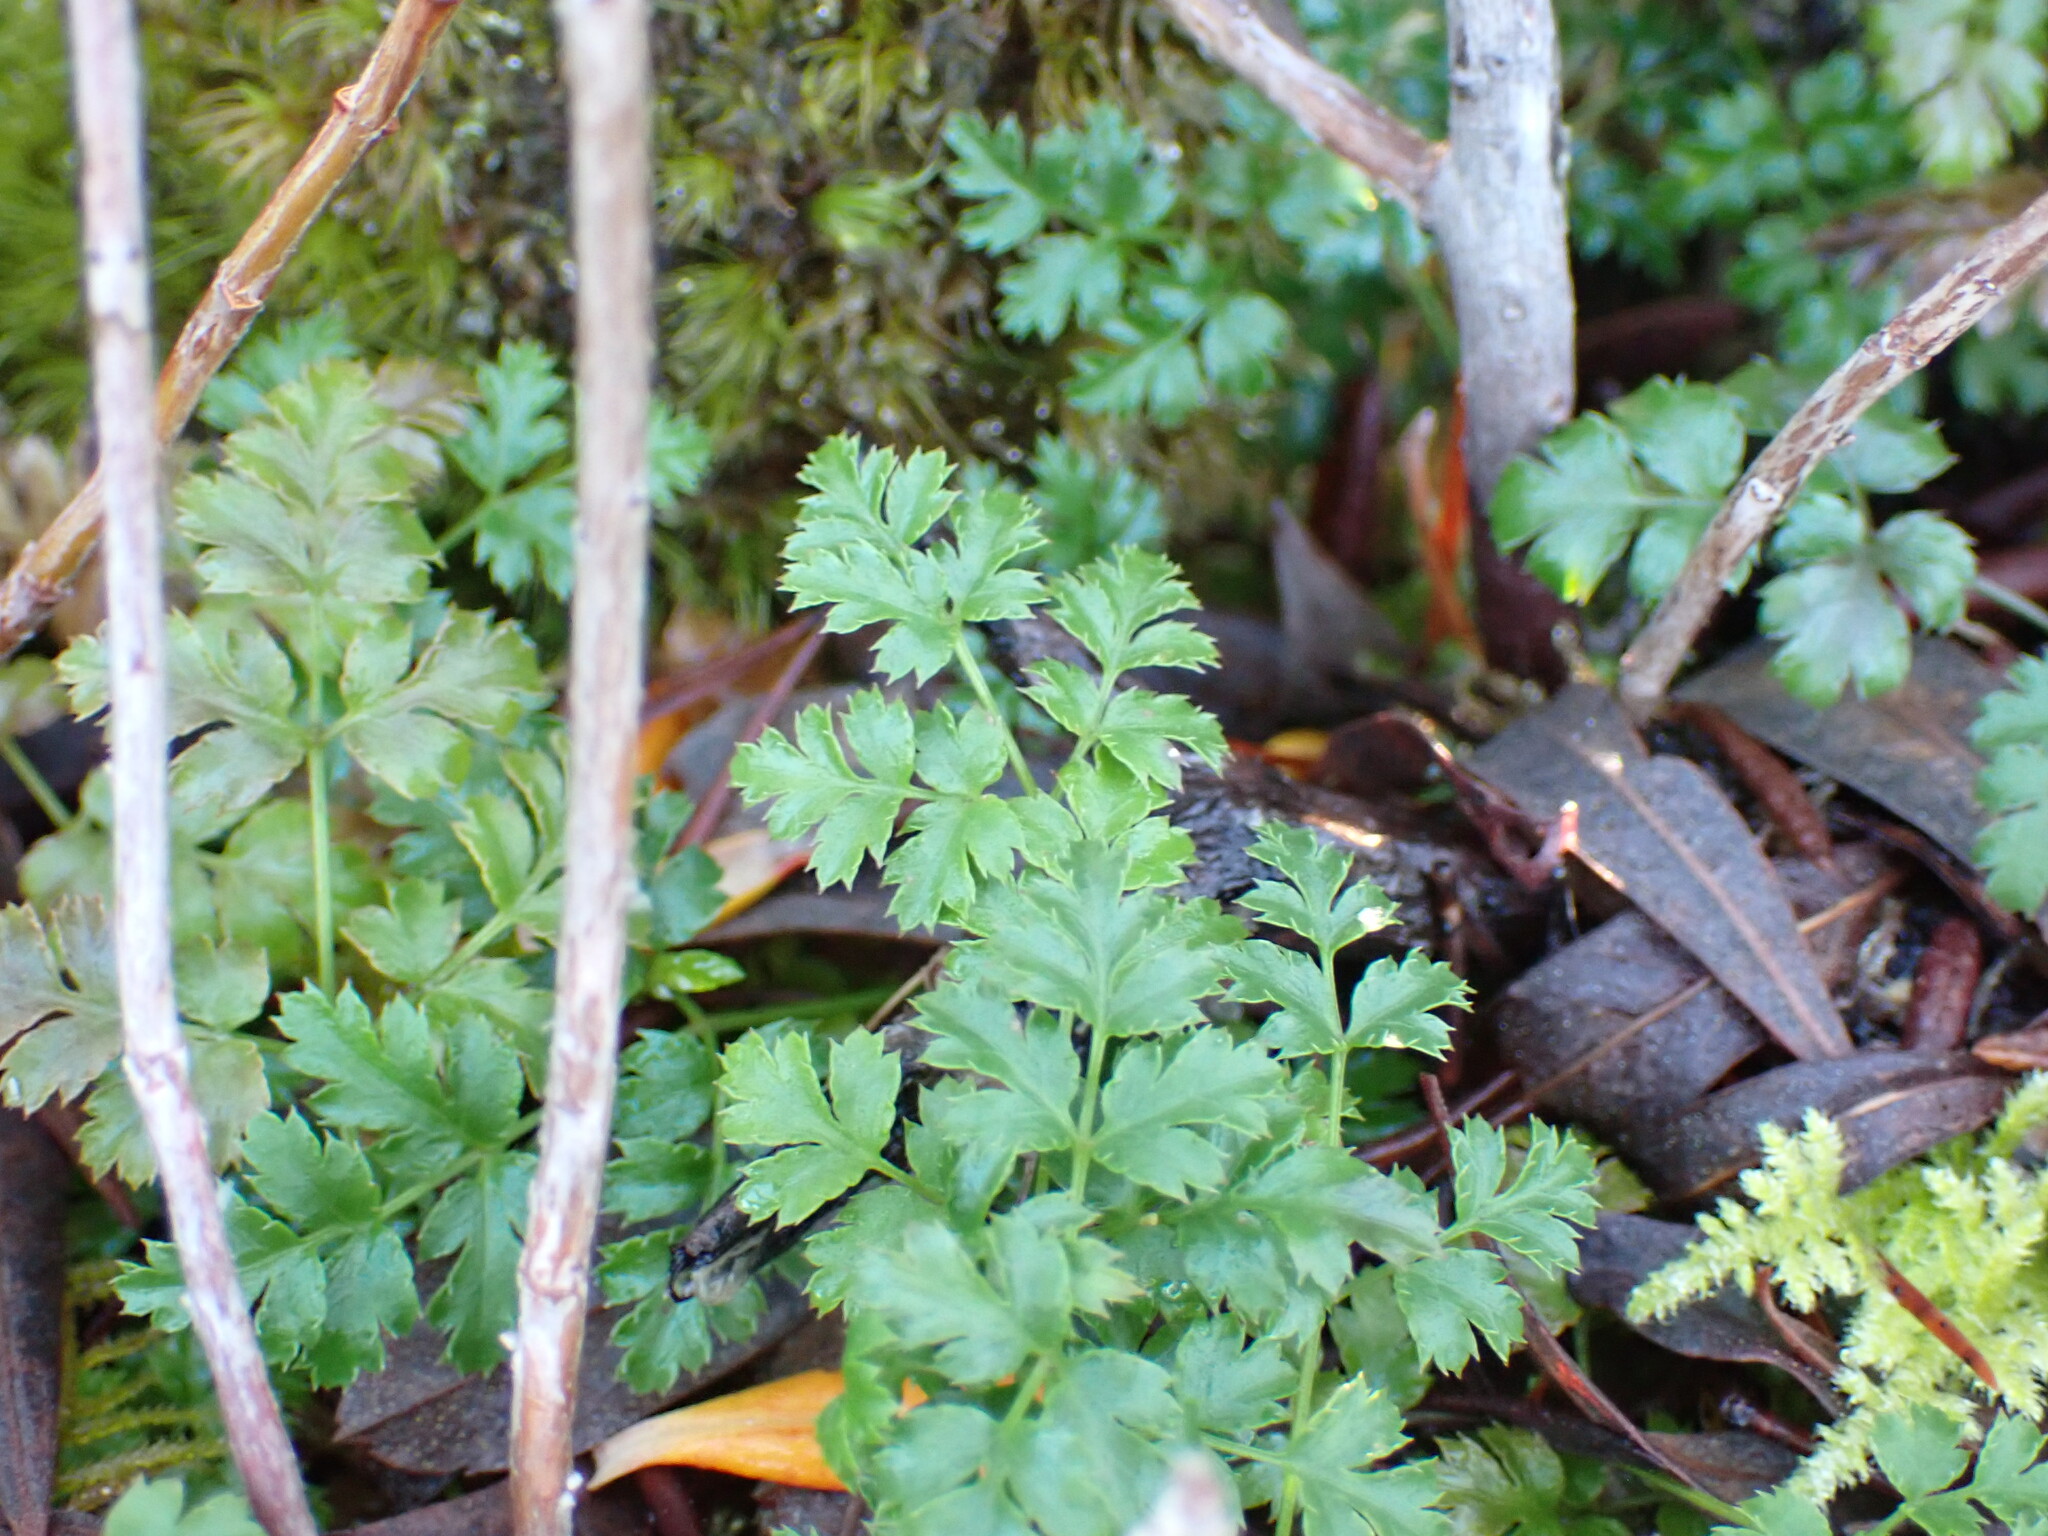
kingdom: Plantae
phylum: Tracheophyta
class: Magnoliopsida
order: Ranunculales
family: Ranunculaceae
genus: Coptis
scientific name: Coptis aspleniifolia
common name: Fern-leaved goldthread
